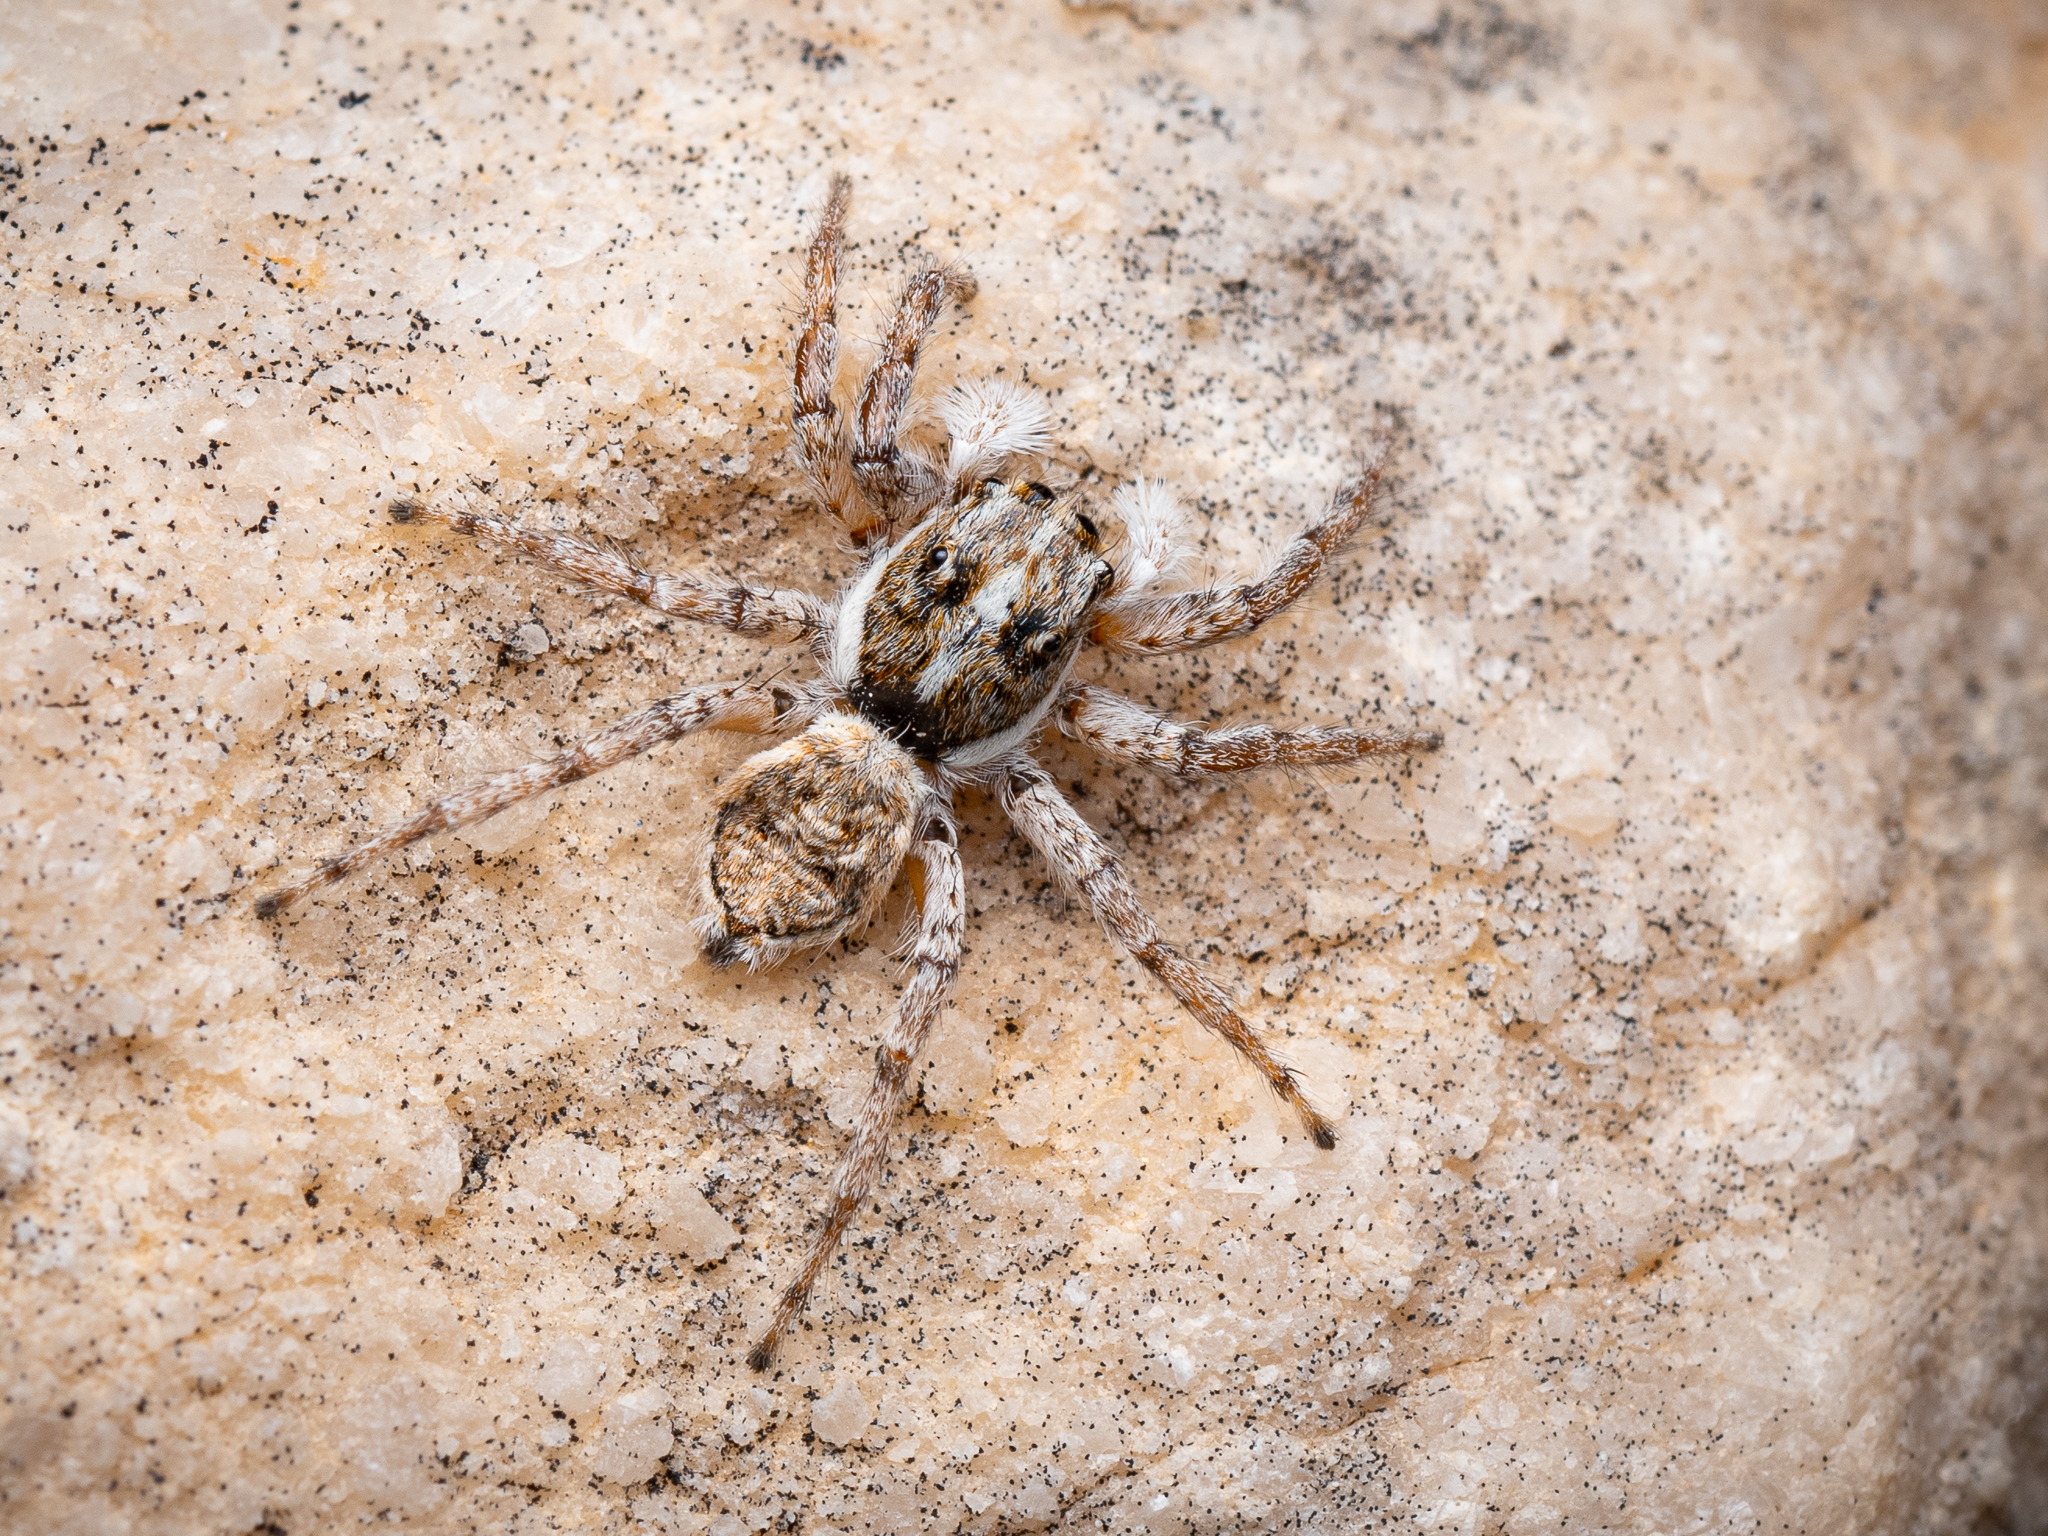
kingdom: Animalia
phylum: Arthropoda
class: Arachnida
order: Araneae
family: Salticidae
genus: Menemerus
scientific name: Menemerus semilimbatus
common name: Jumping spider
